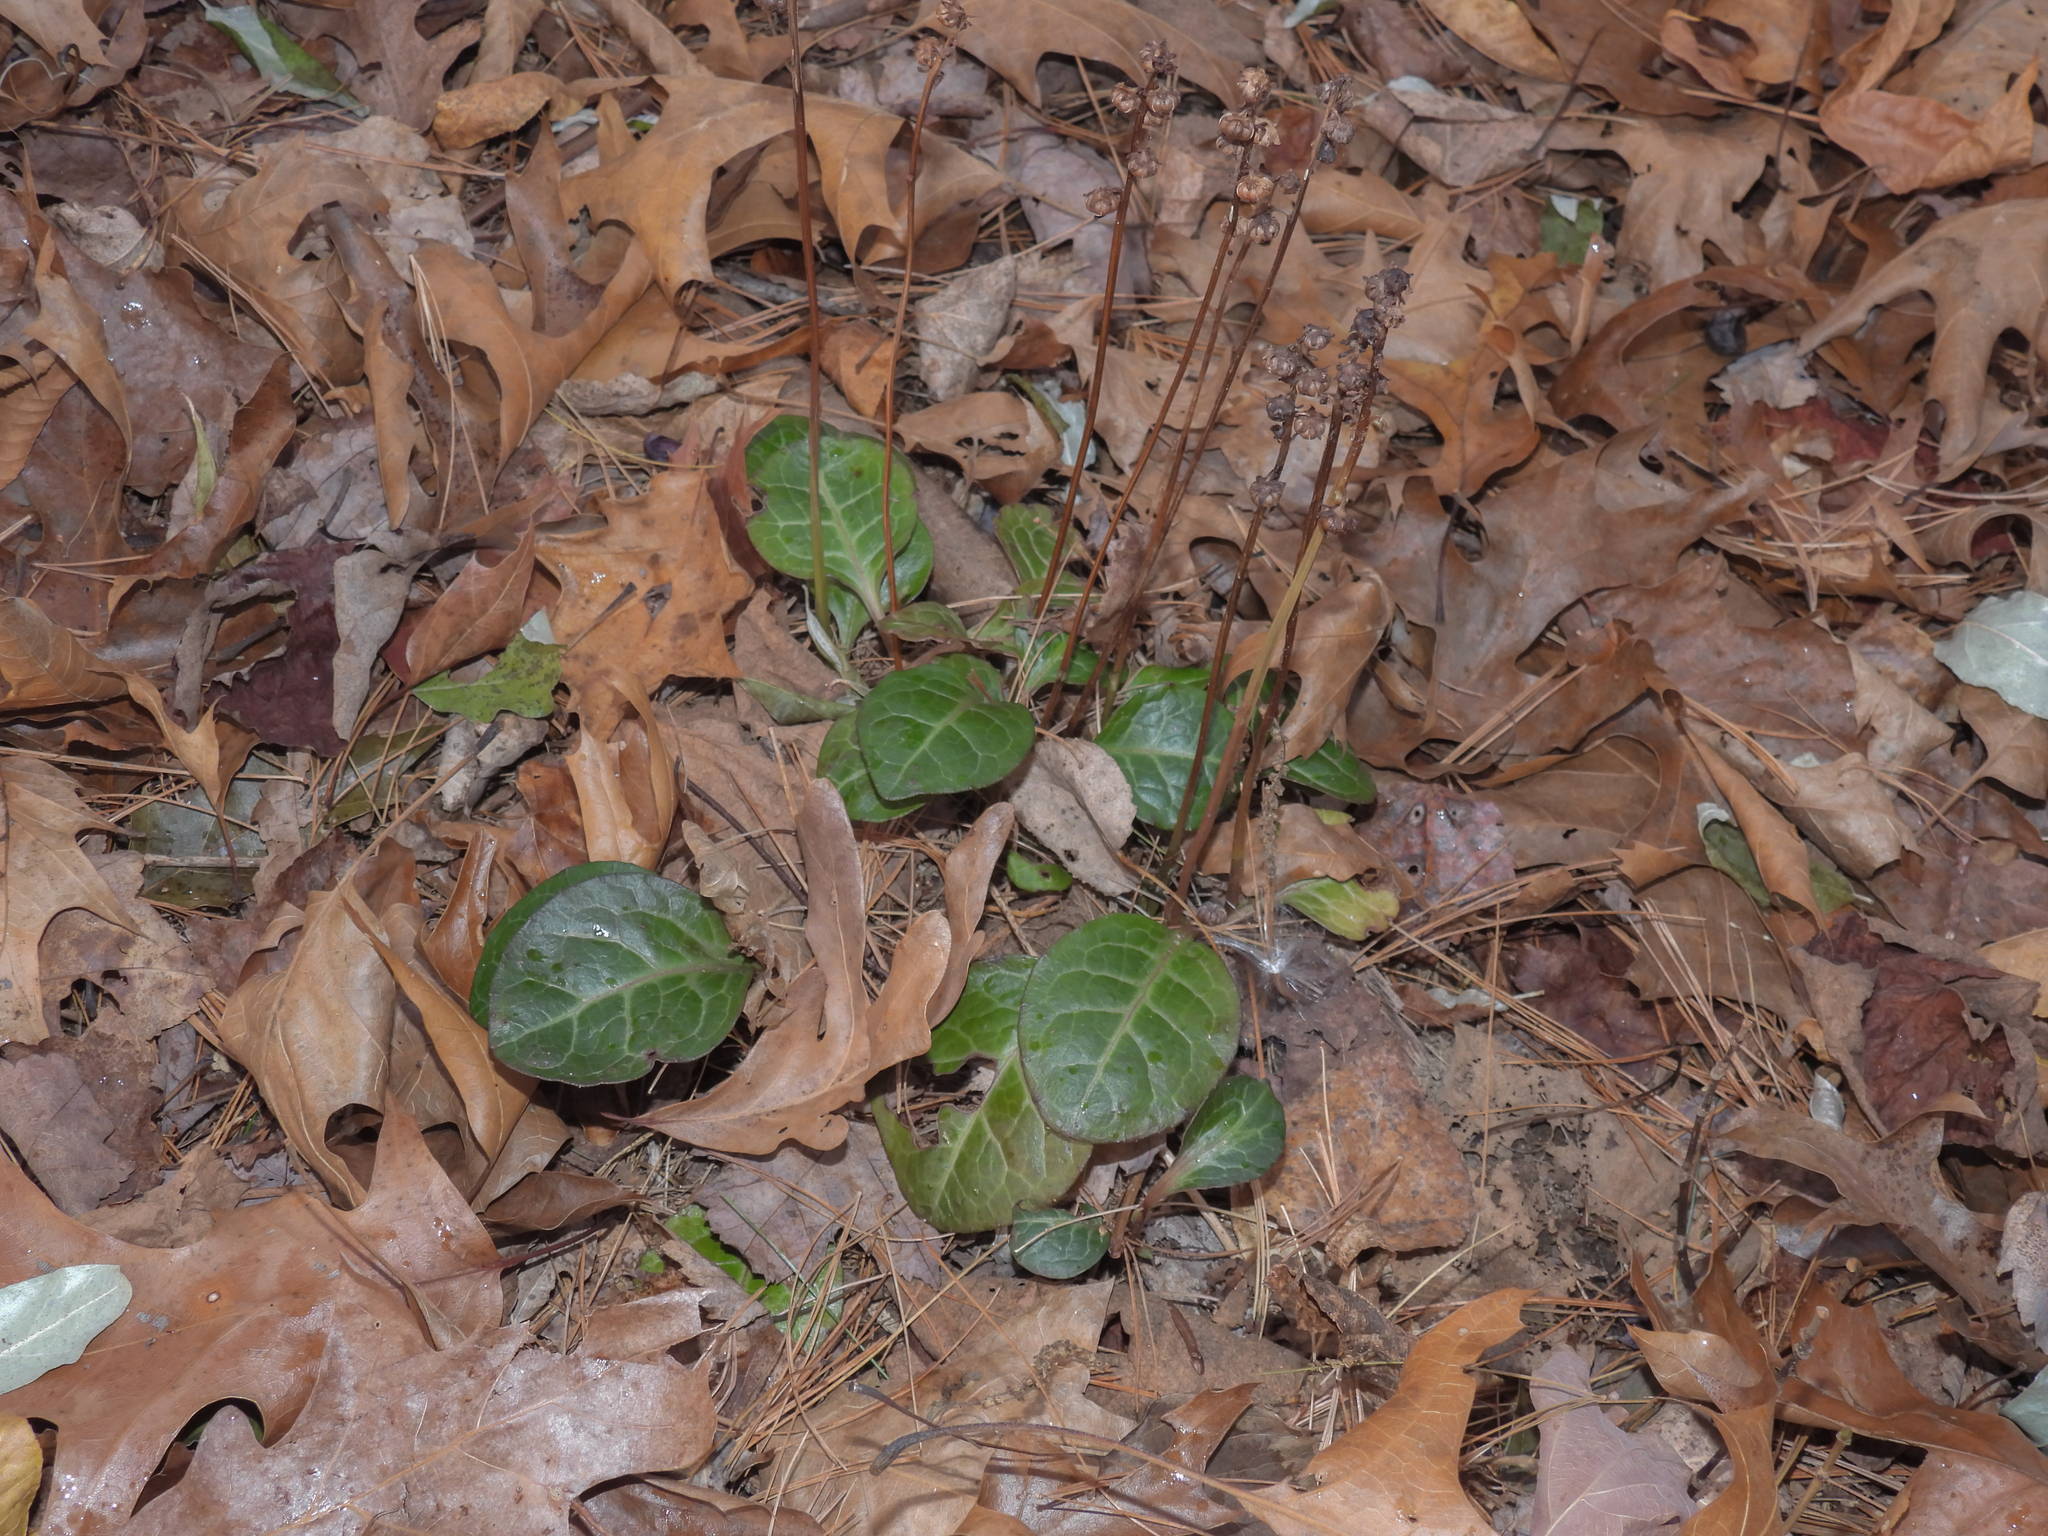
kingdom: Plantae
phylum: Tracheophyta
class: Magnoliopsida
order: Ericales
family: Ericaceae
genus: Pyrola
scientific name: Pyrola americana
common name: American wintergreen
